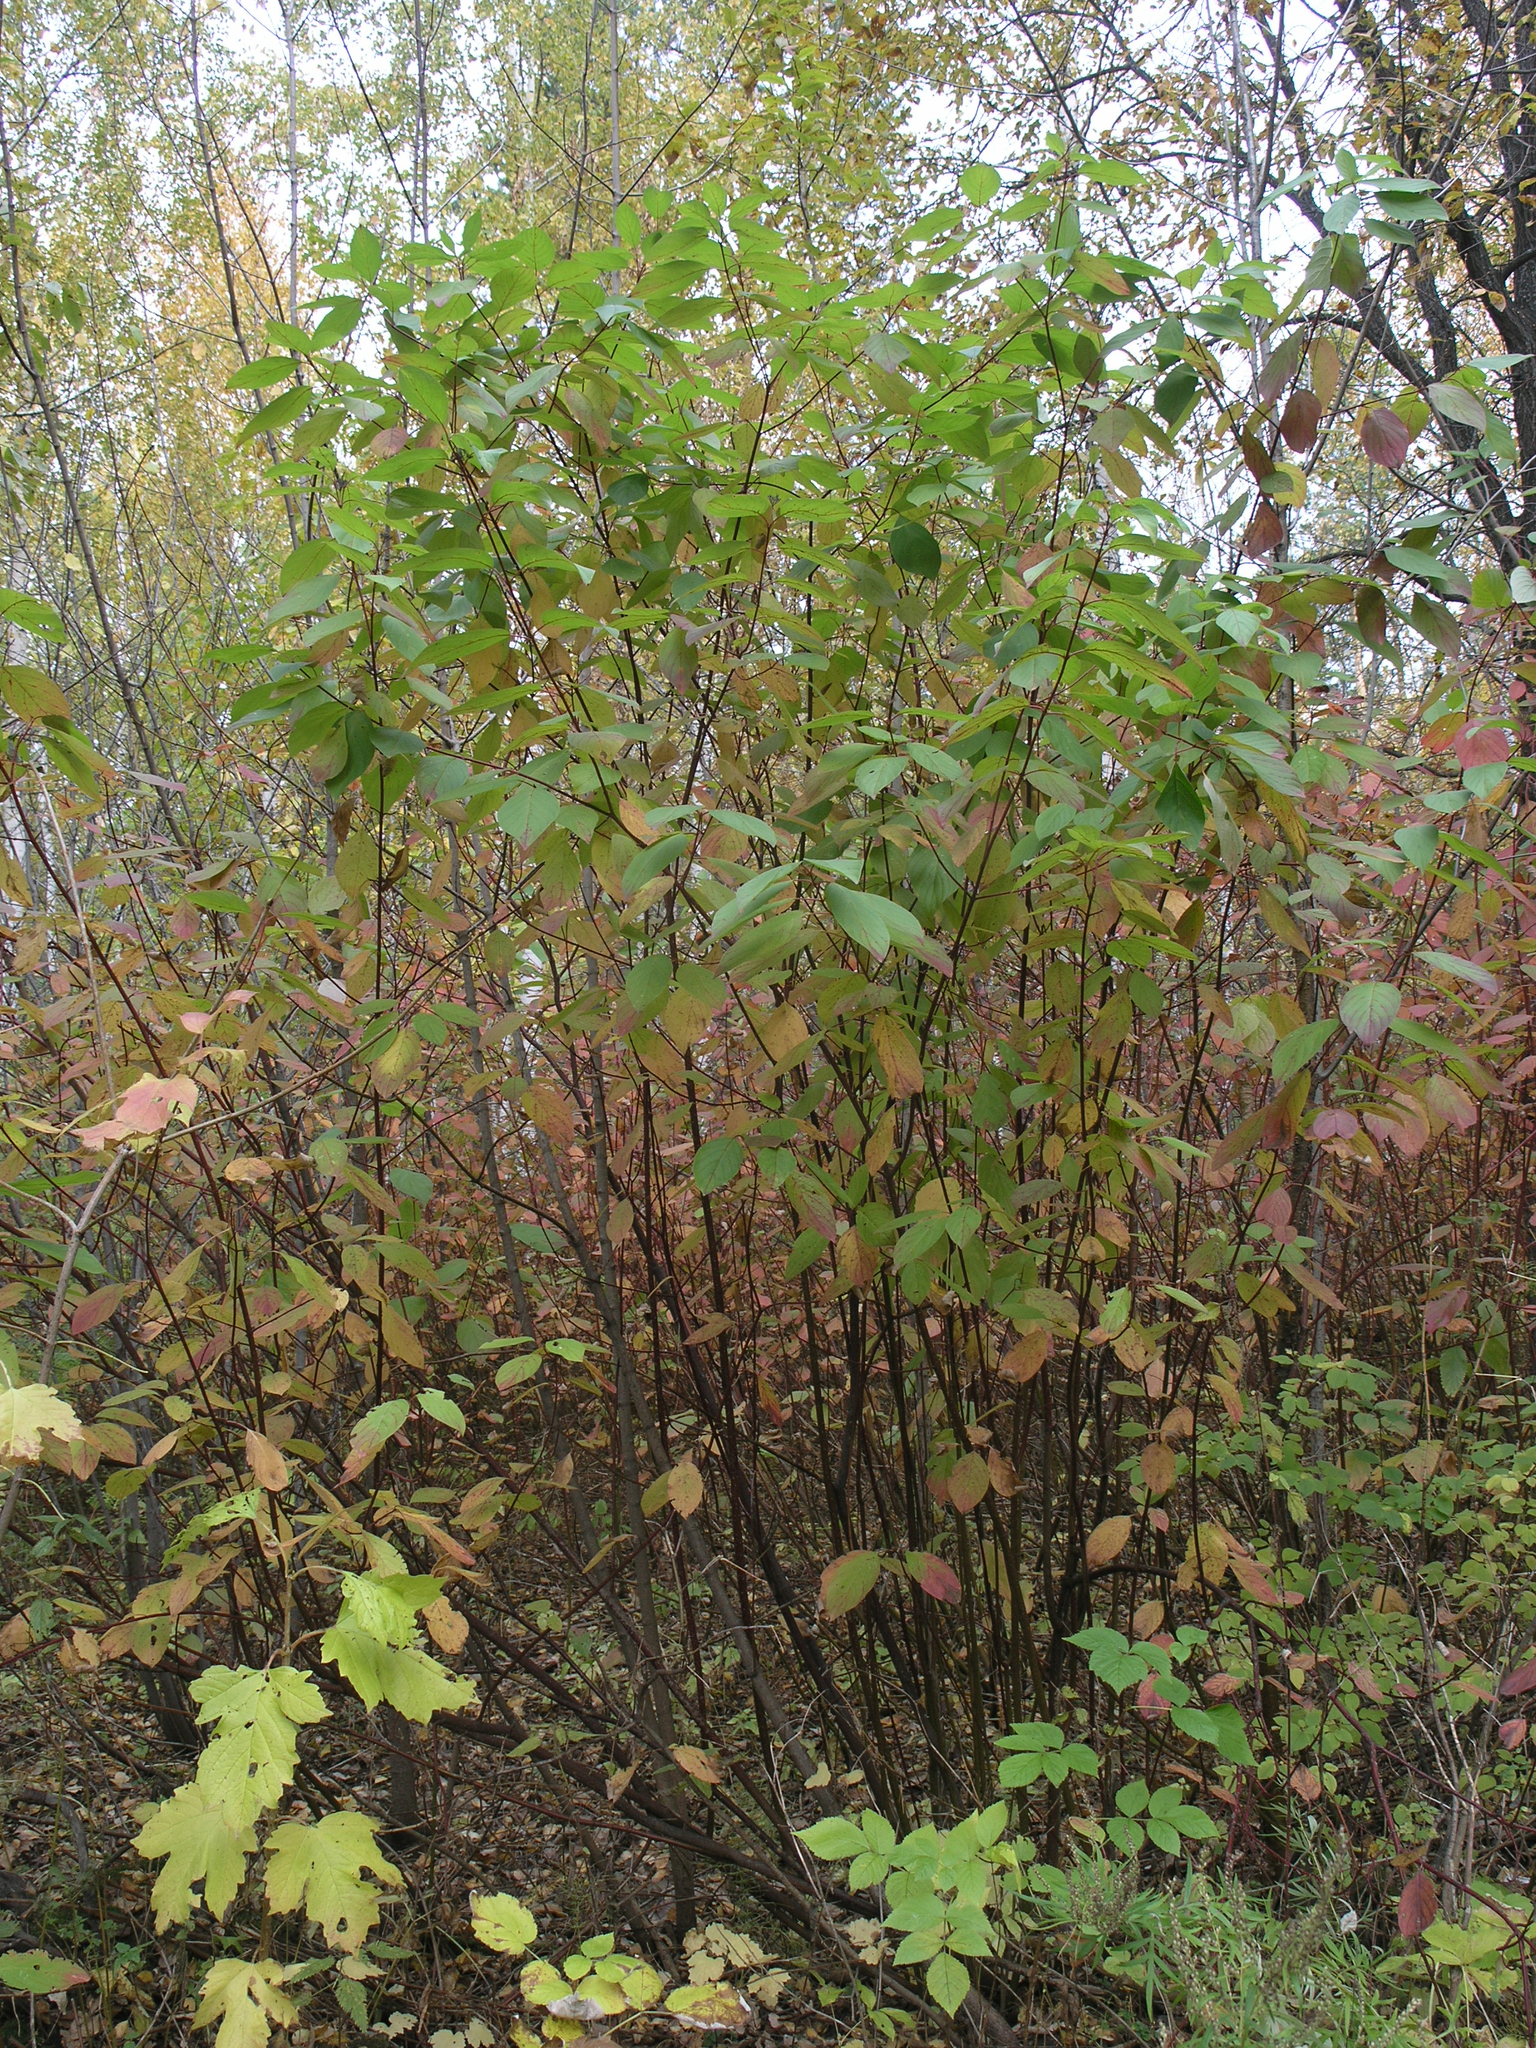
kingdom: Plantae
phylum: Tracheophyta
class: Magnoliopsida
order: Rosales
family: Rhamnaceae
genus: Frangula
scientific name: Frangula alnus
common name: Alder buckthorn
